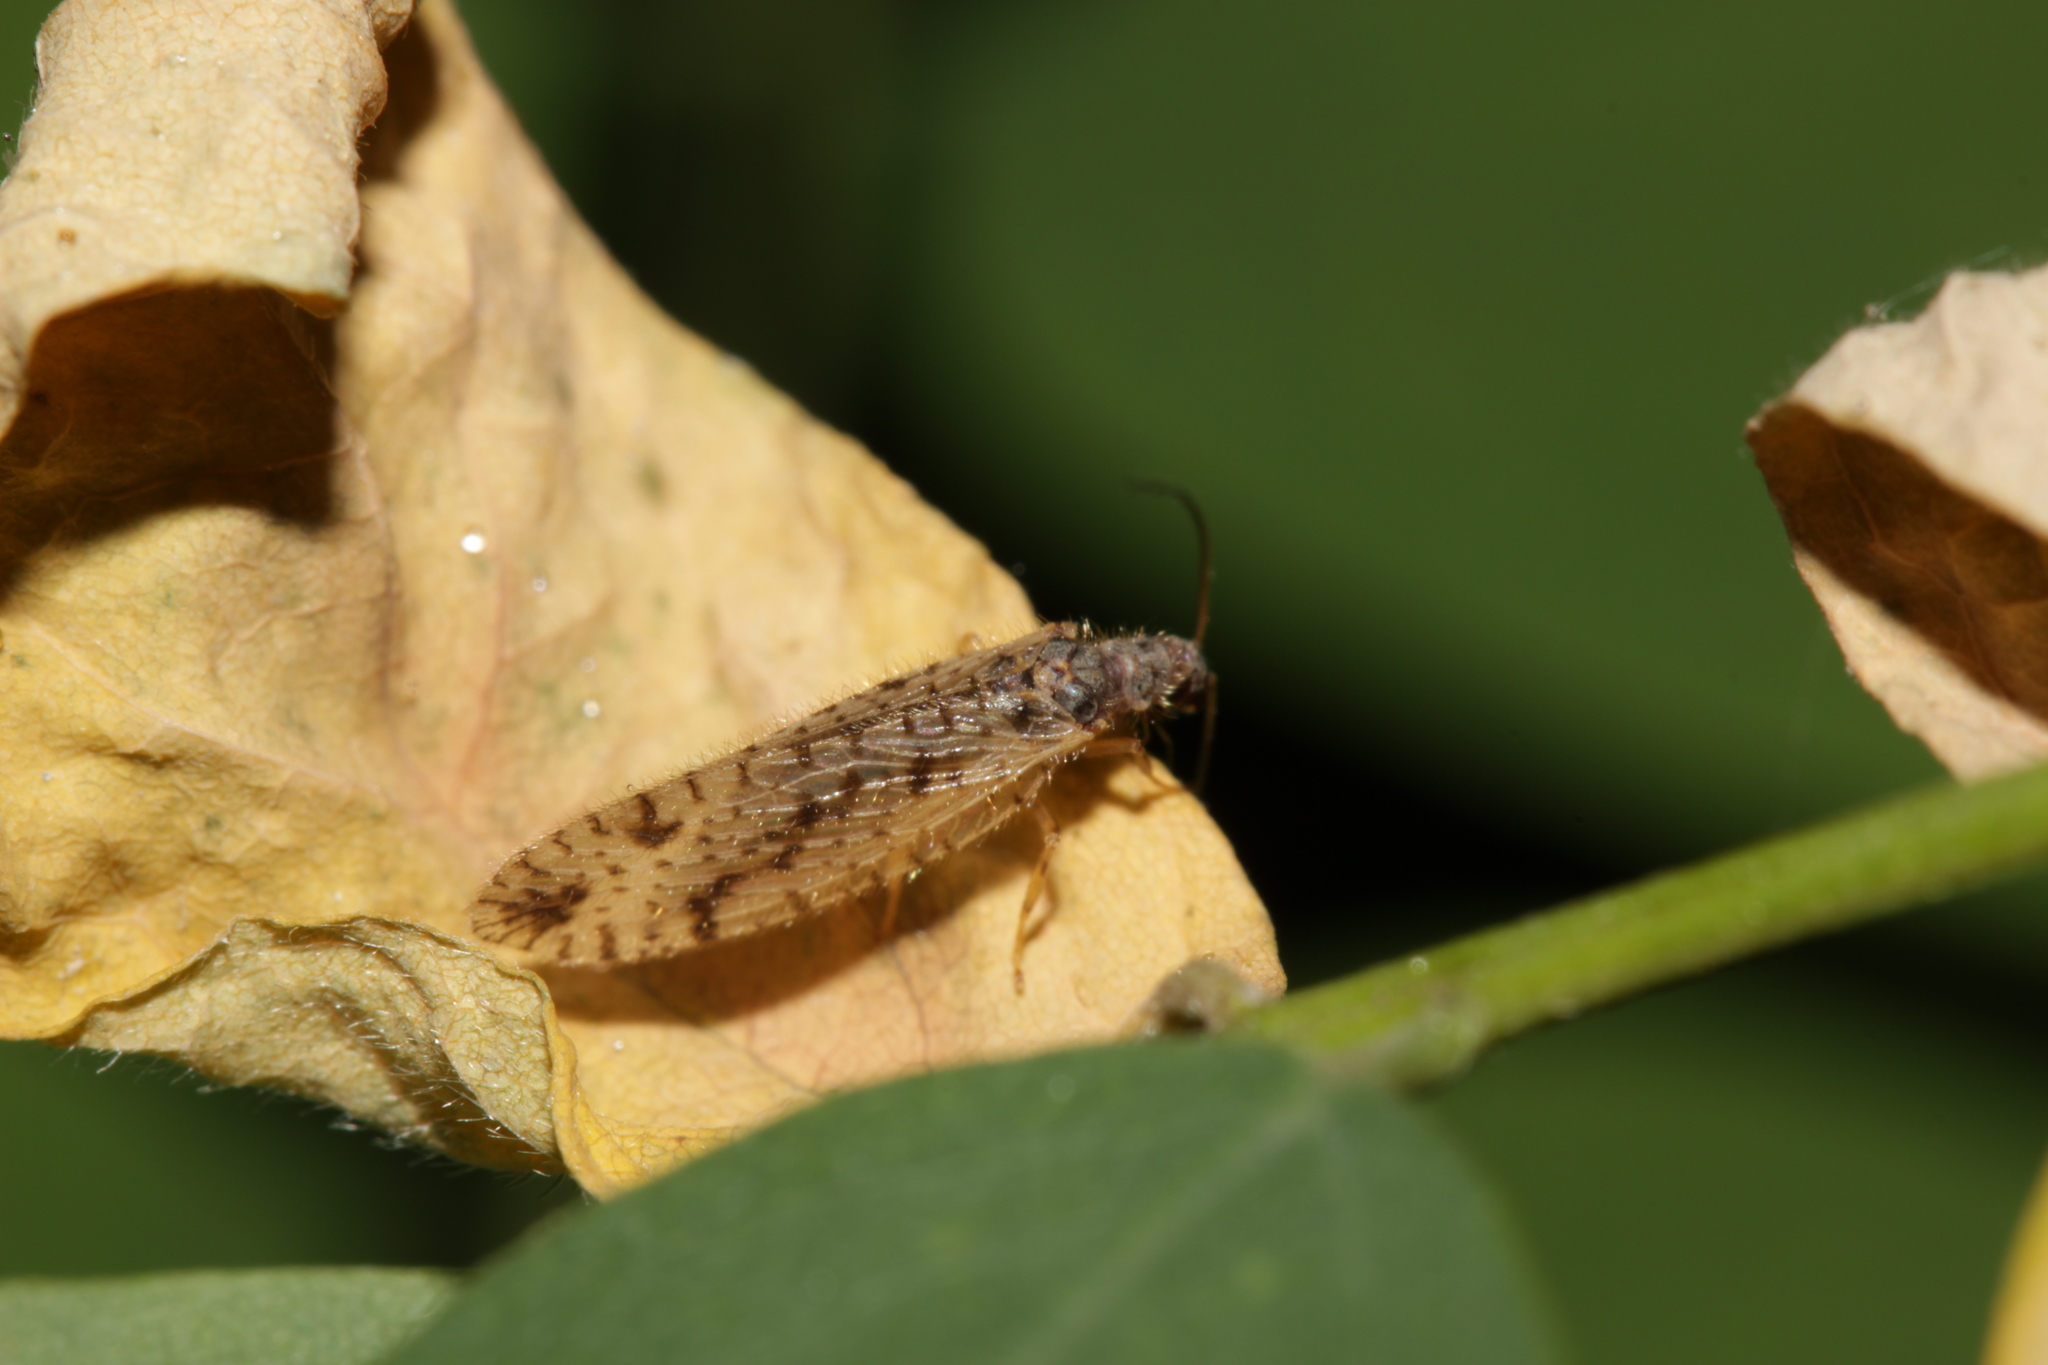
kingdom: Animalia
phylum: Arthropoda
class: Insecta
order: Neuroptera
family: Hemerobiidae
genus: Micromus
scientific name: Micromus variegatus
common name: Brown lacewing
